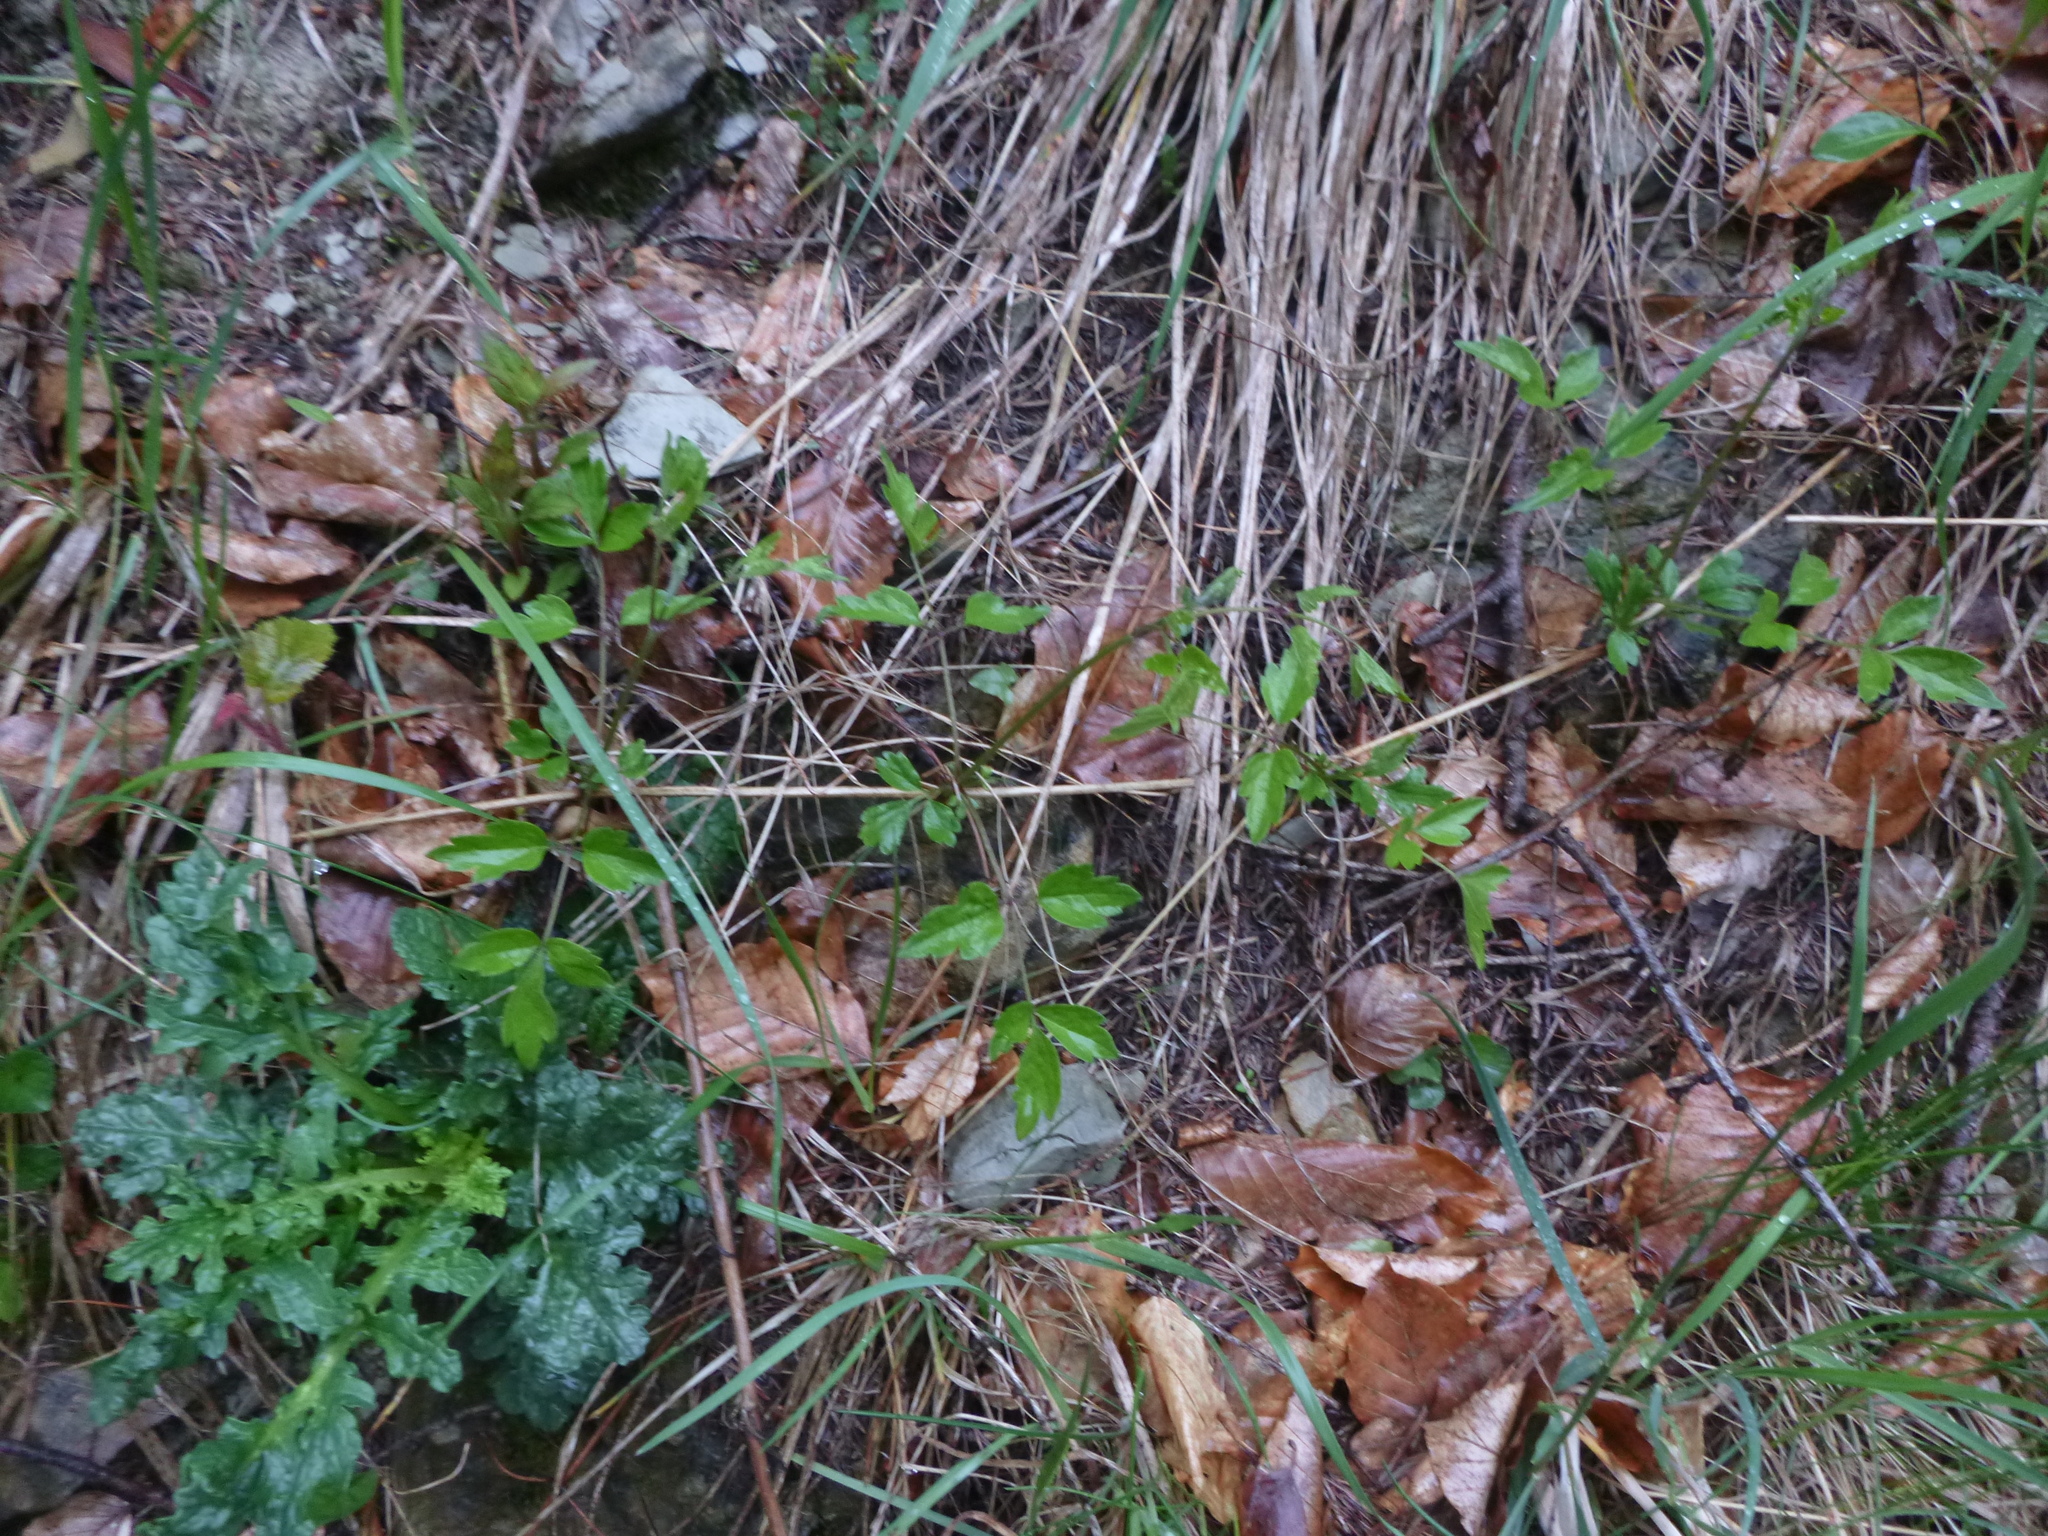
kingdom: Plantae
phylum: Tracheophyta
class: Magnoliopsida
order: Ranunculales
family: Ranunculaceae
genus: Clematis
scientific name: Clematis vitalba
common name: Evergreen clematis
